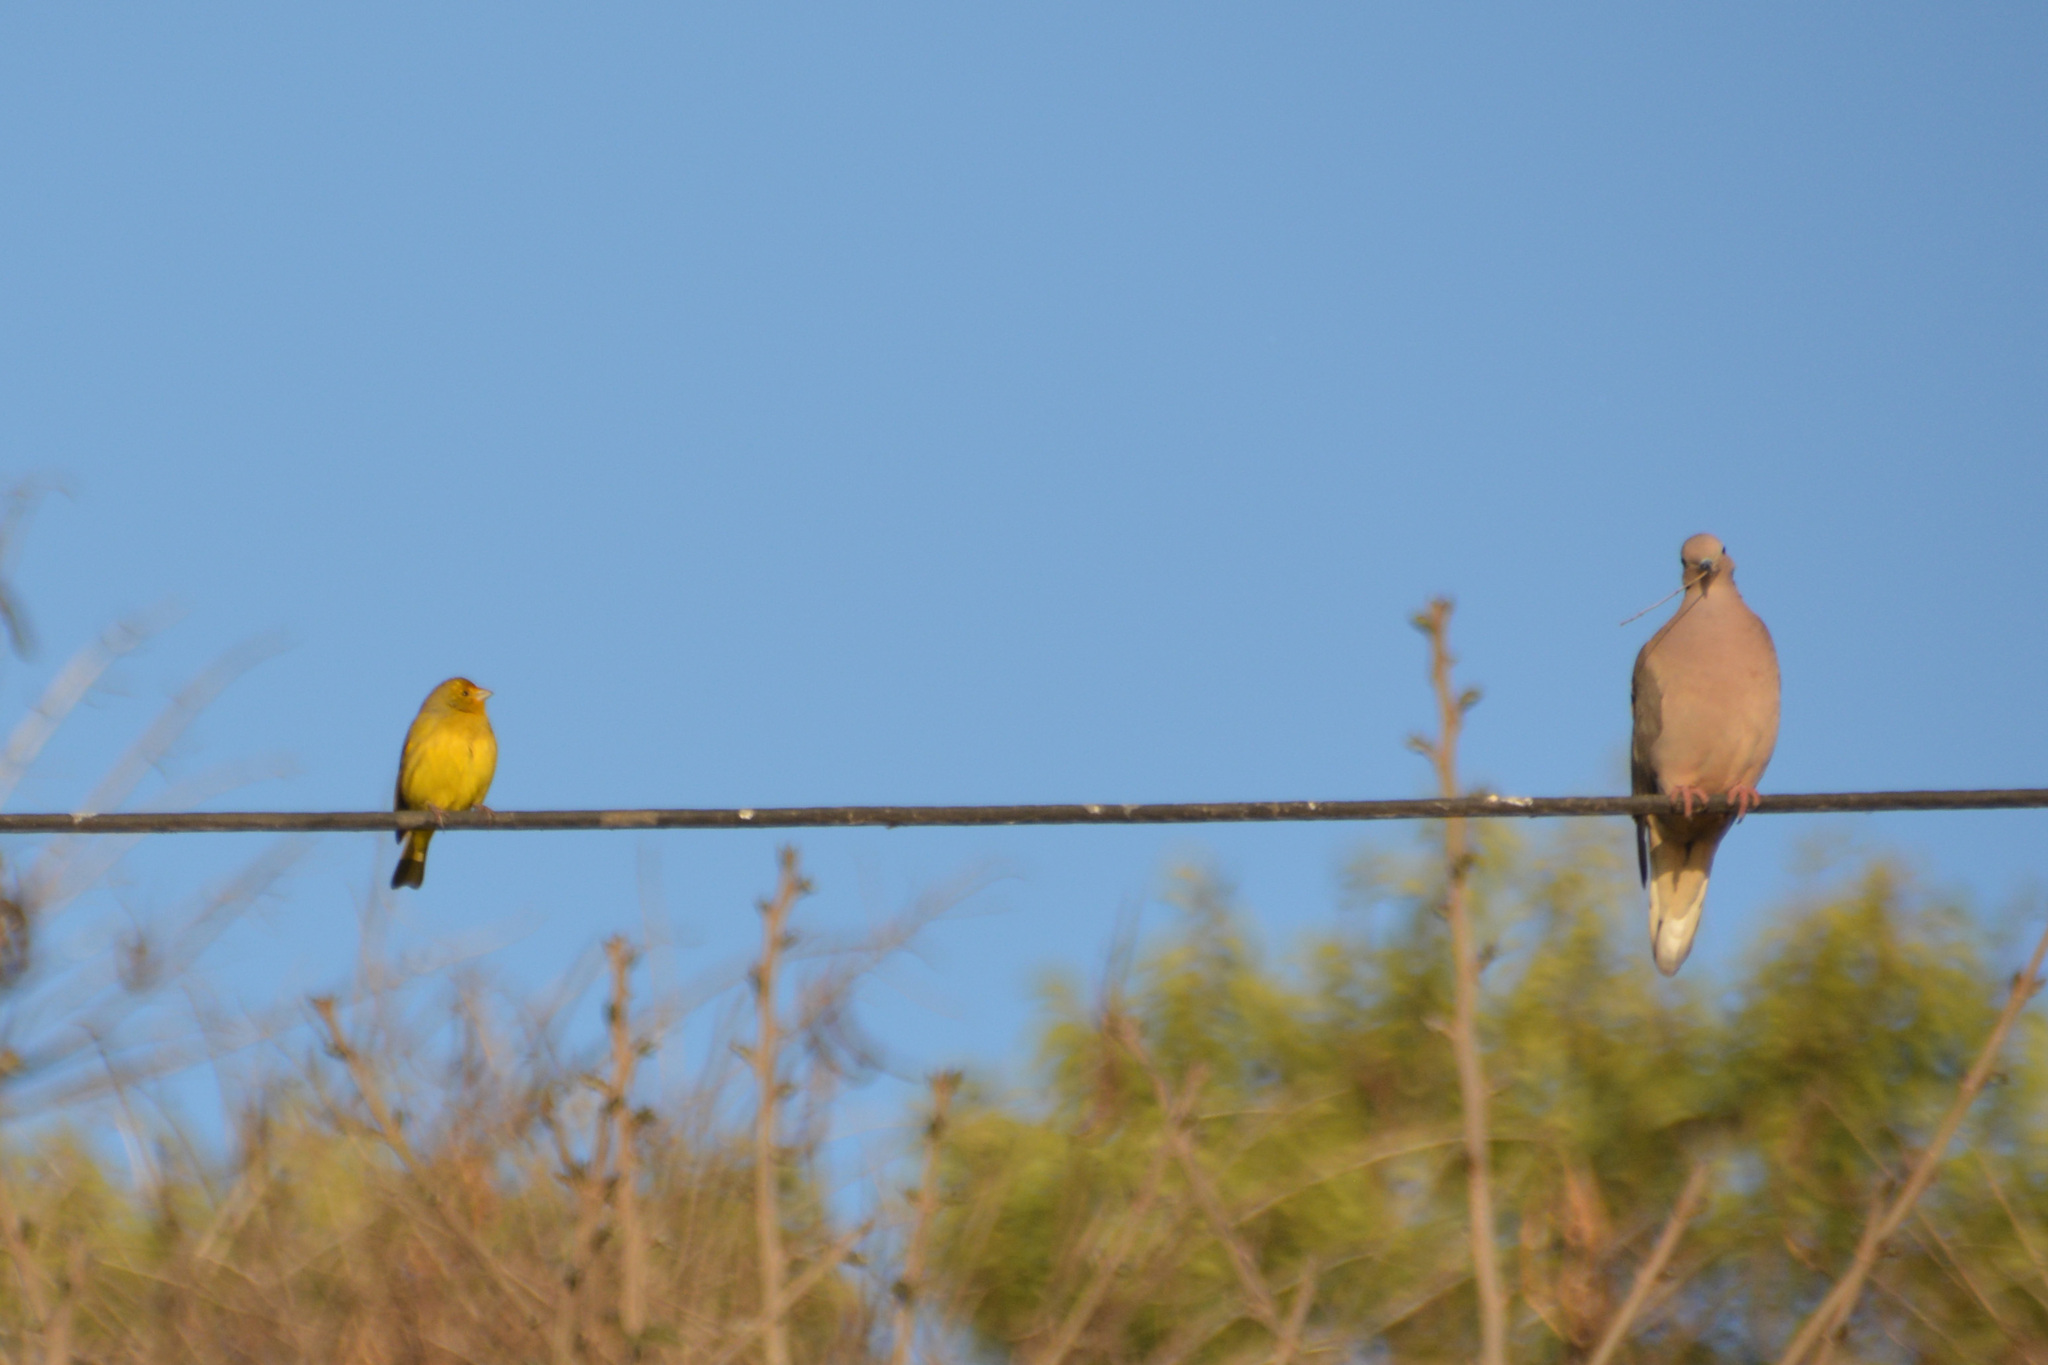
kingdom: Animalia
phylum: Chordata
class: Aves
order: Passeriformes
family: Thraupidae
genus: Sicalis
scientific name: Sicalis flaveola
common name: Saffron finch
